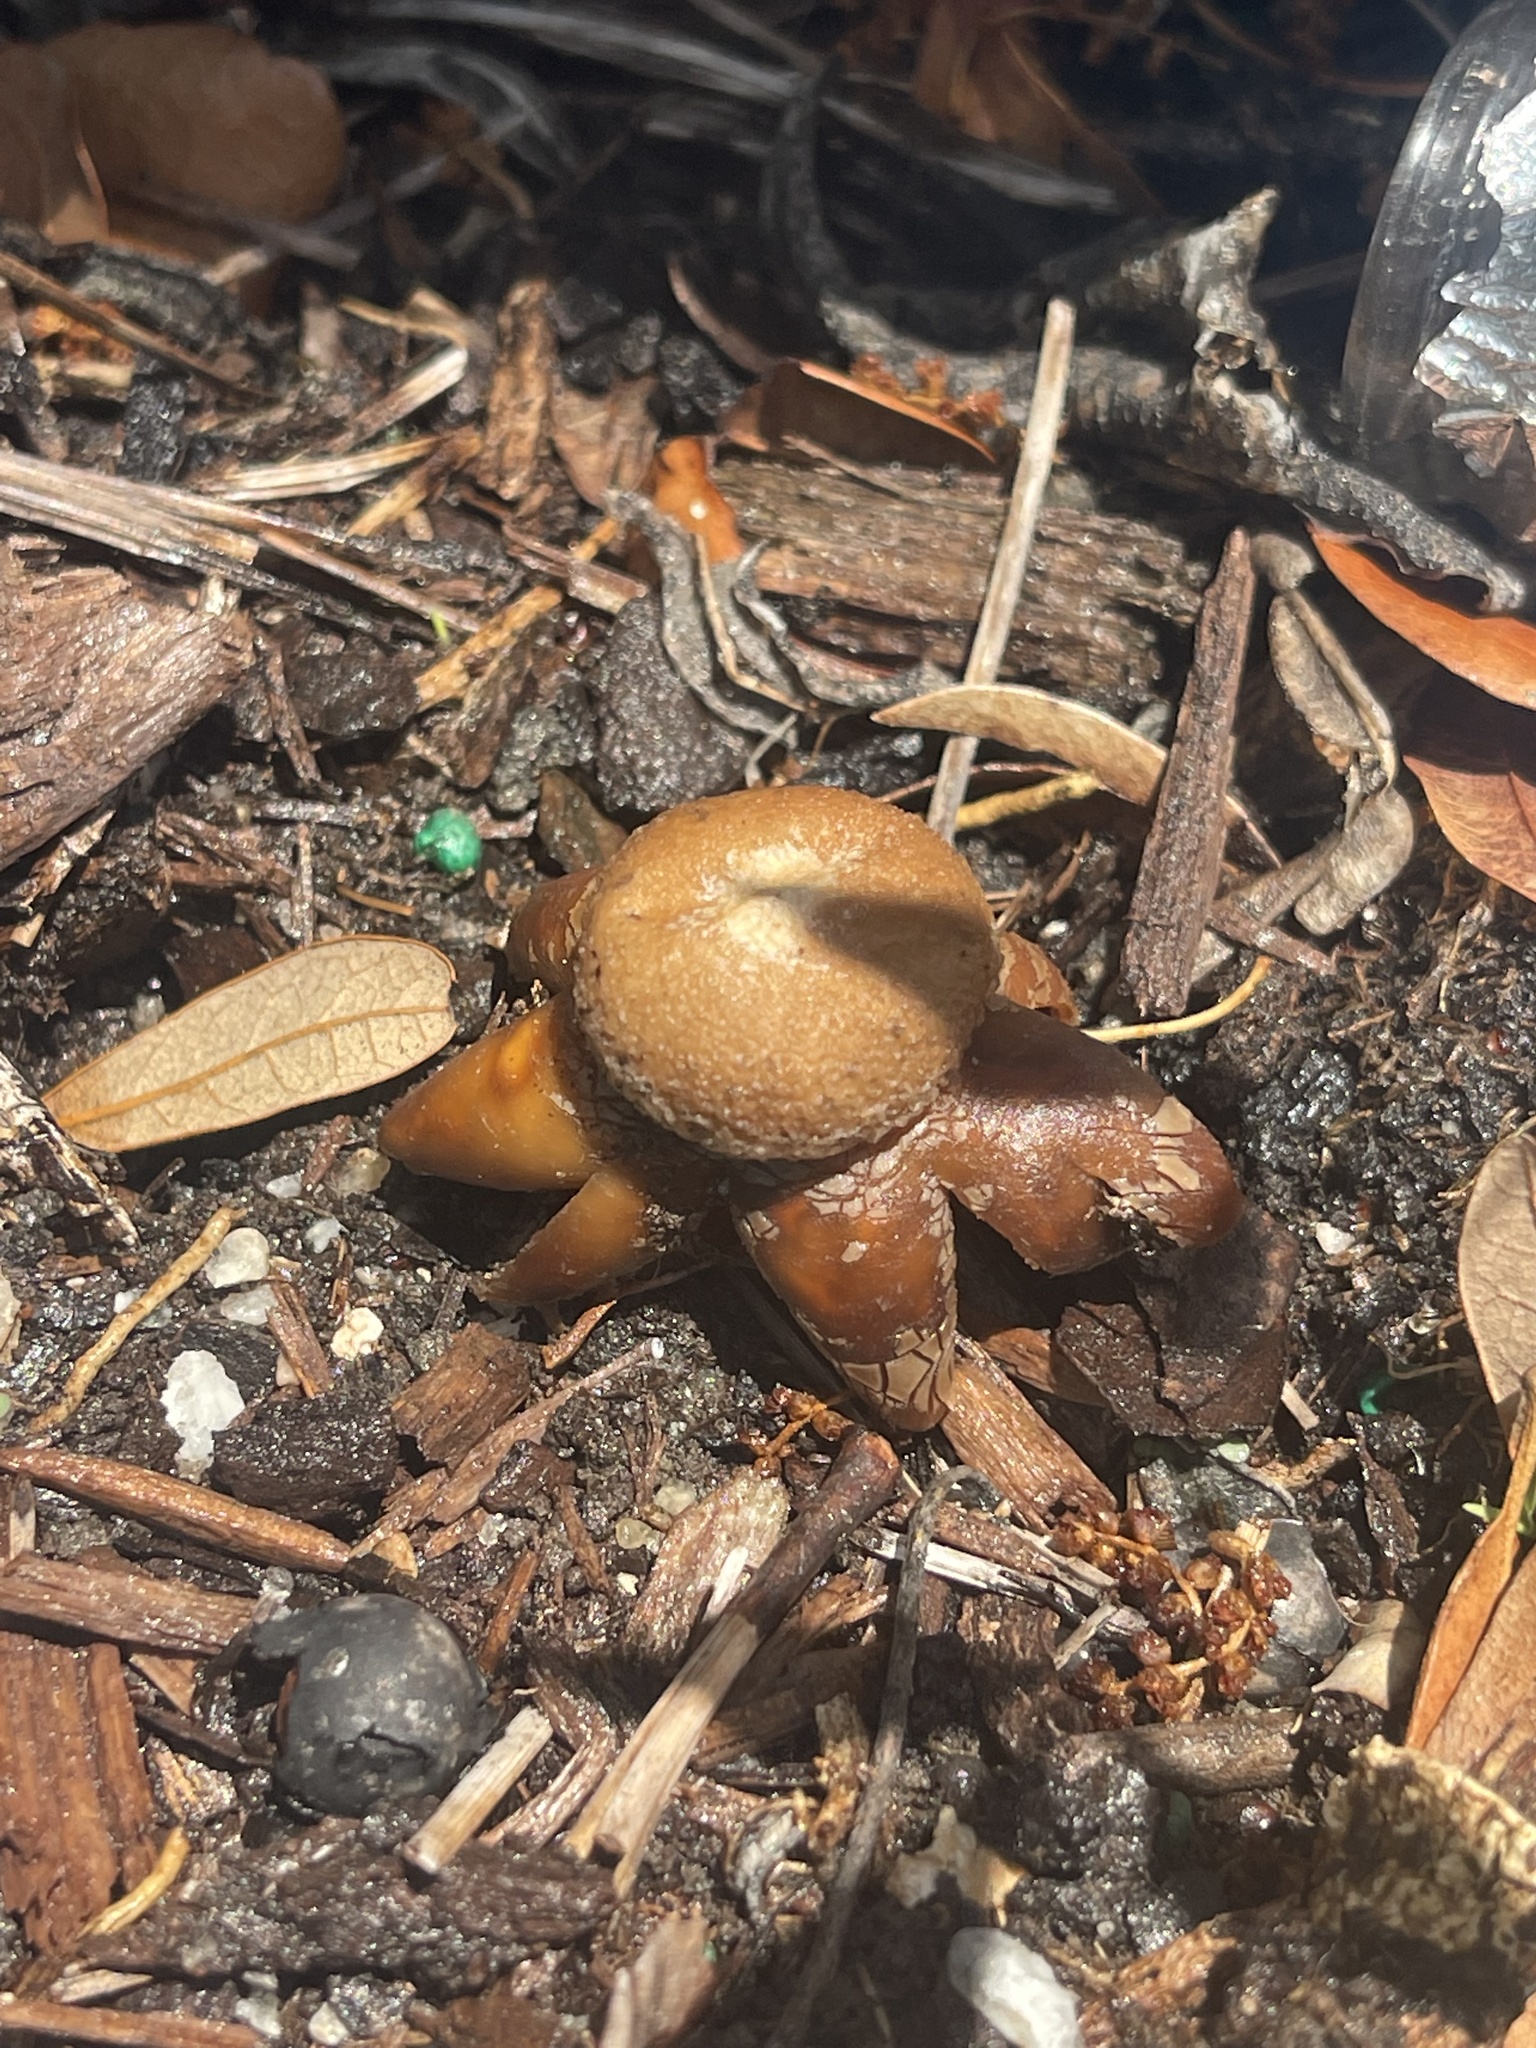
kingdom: Fungi
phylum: Basidiomycota
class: Agaricomycetes
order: Boletales
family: Diplocystidiaceae
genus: Astraeus
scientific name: Astraeus hygrometricus
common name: Barometer earthstar
